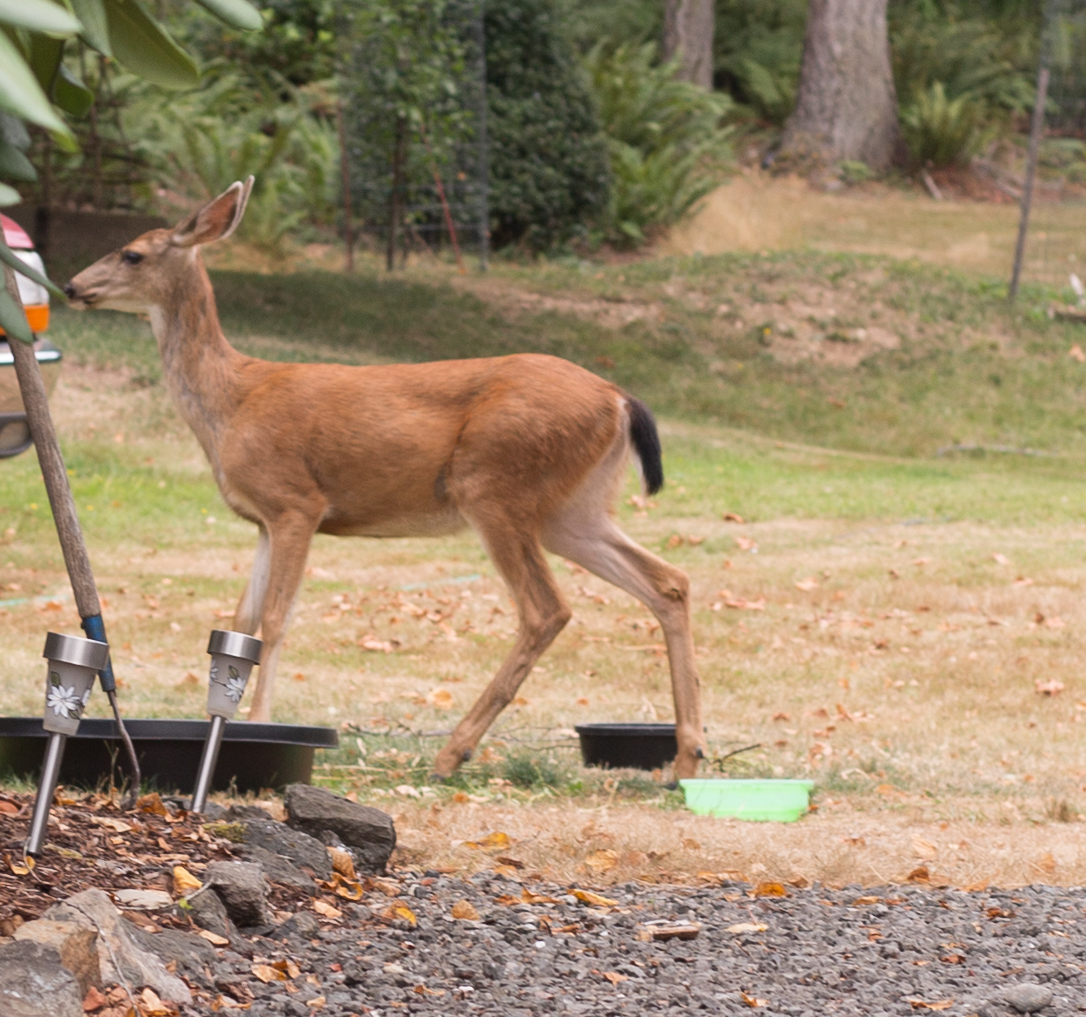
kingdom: Animalia
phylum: Chordata
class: Mammalia
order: Artiodactyla
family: Cervidae
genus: Odocoileus
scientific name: Odocoileus hemionus
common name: Mule deer
